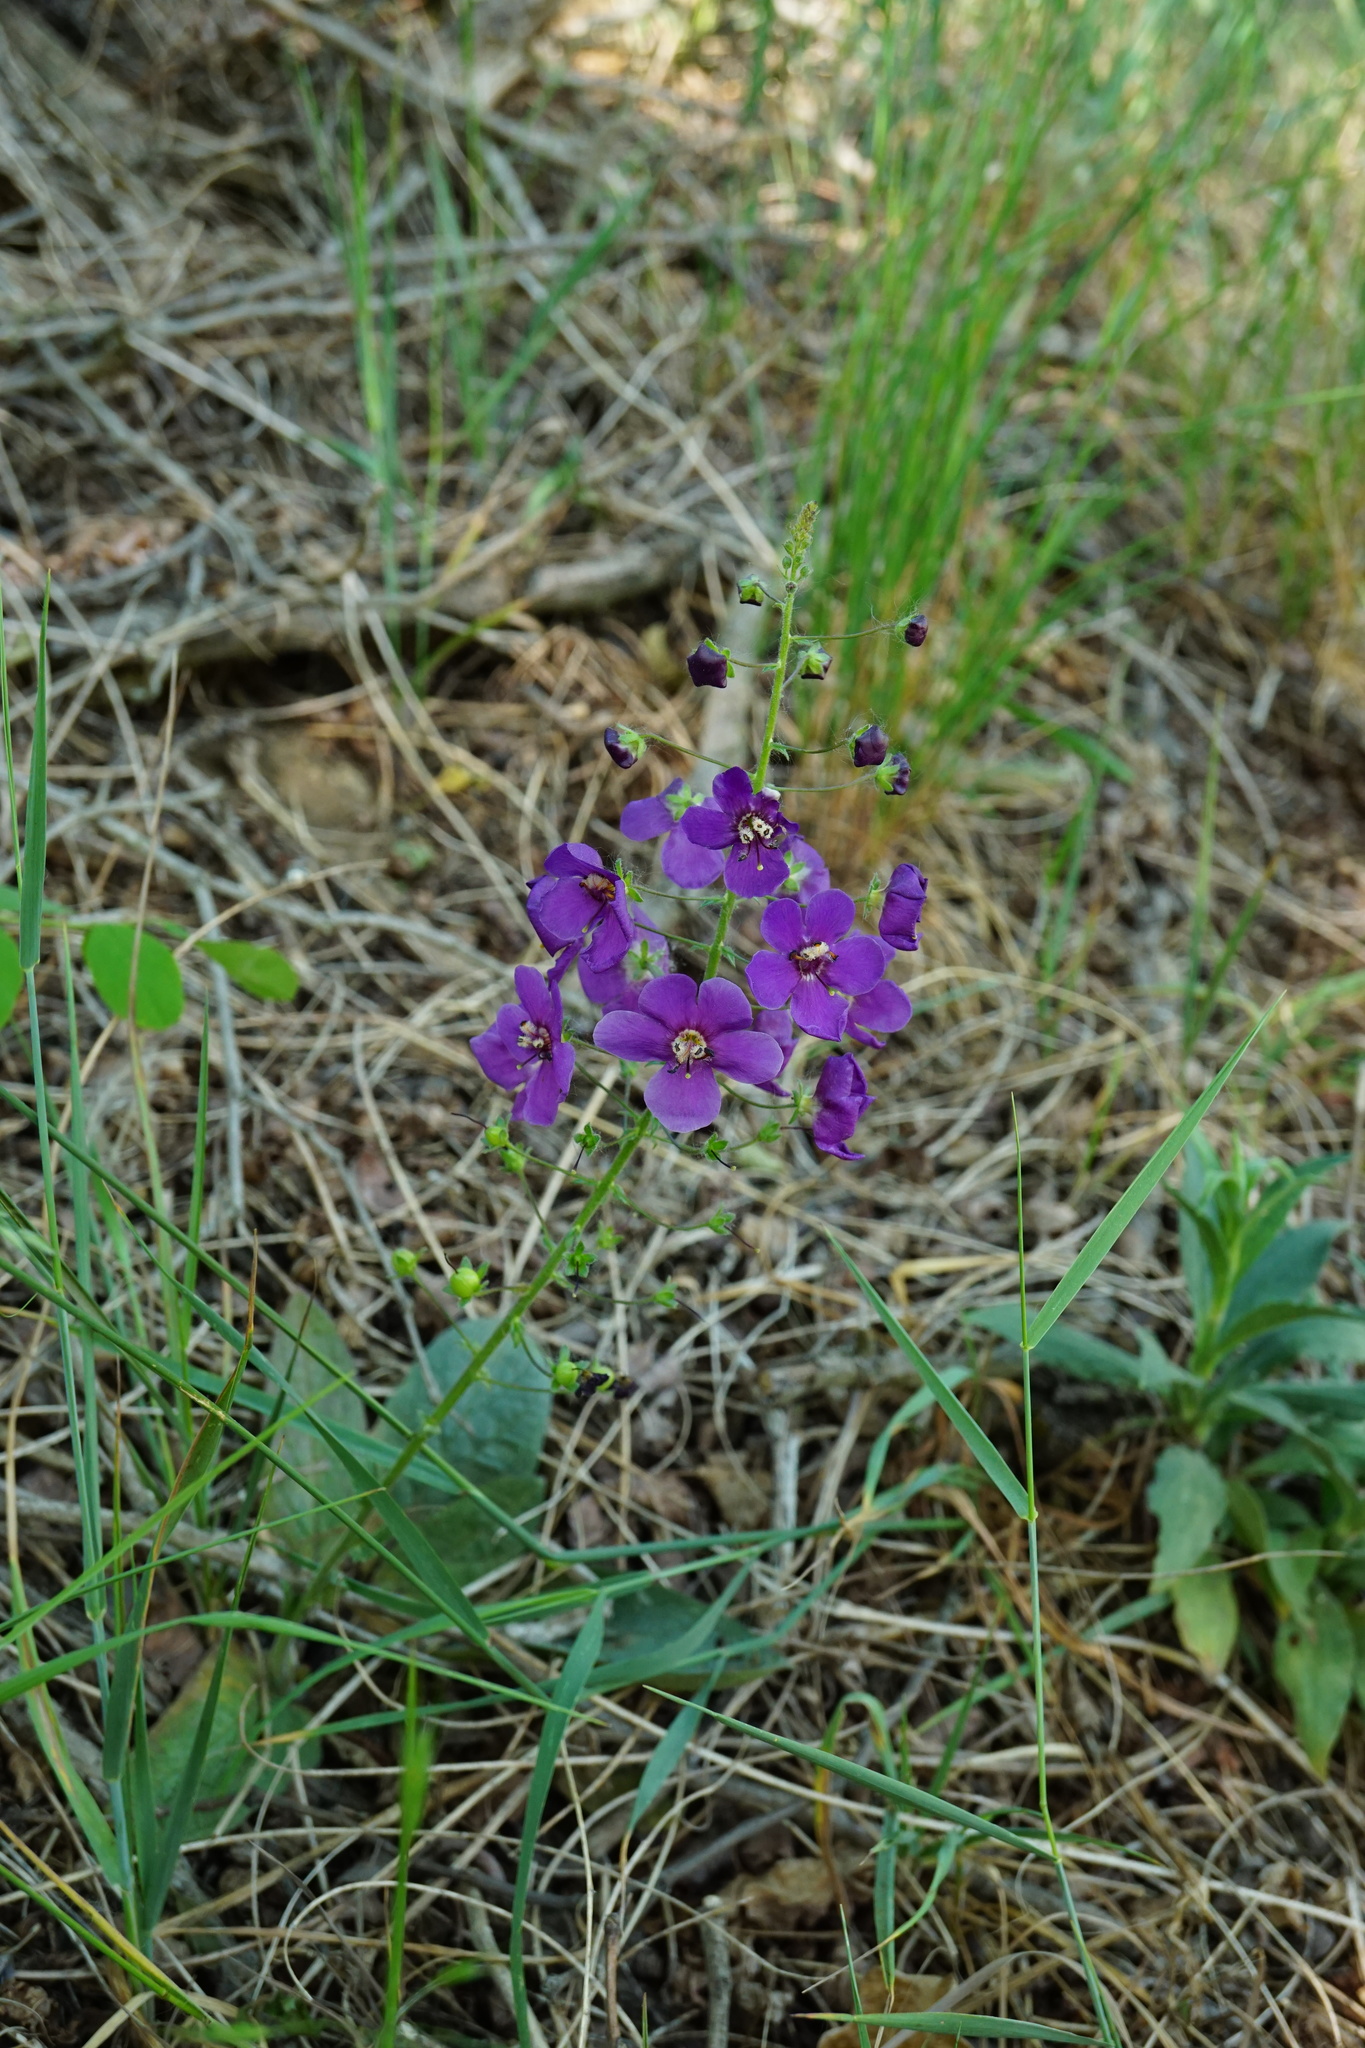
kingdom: Plantae
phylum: Tracheophyta
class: Magnoliopsida
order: Lamiales
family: Scrophulariaceae
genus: Verbascum
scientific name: Verbascum phoeniceum
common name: Purple mullein
